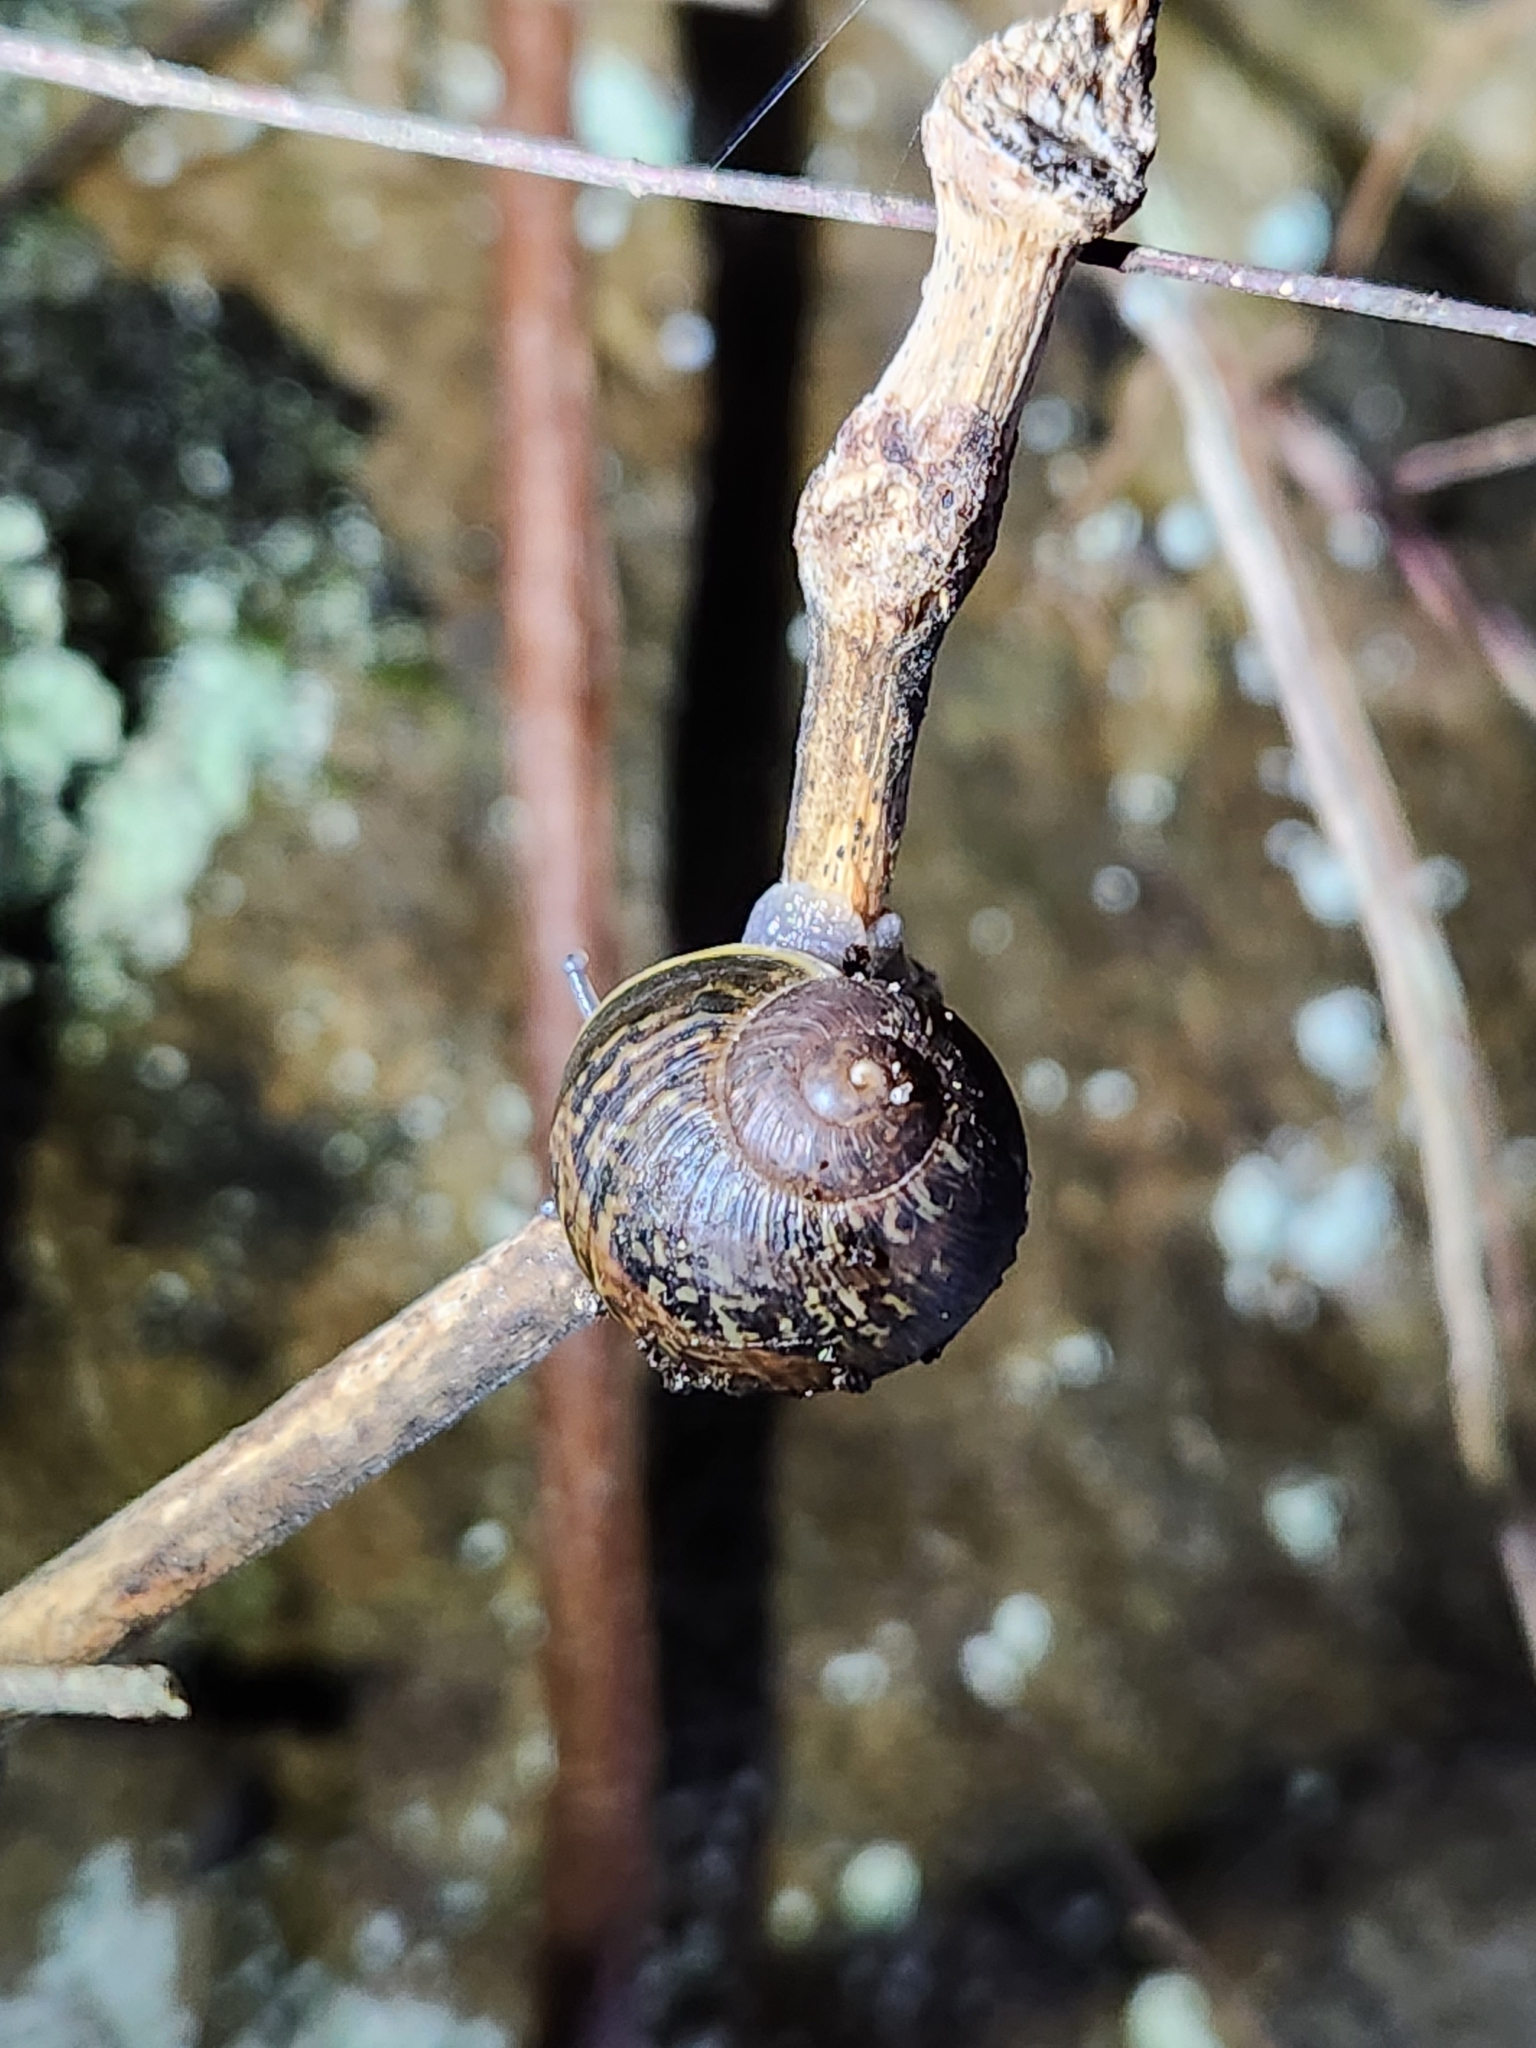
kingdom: Animalia
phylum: Mollusca
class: Gastropoda
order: Stylommatophora
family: Helicidae
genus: Cornu
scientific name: Cornu aspersum
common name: Brown garden snail
